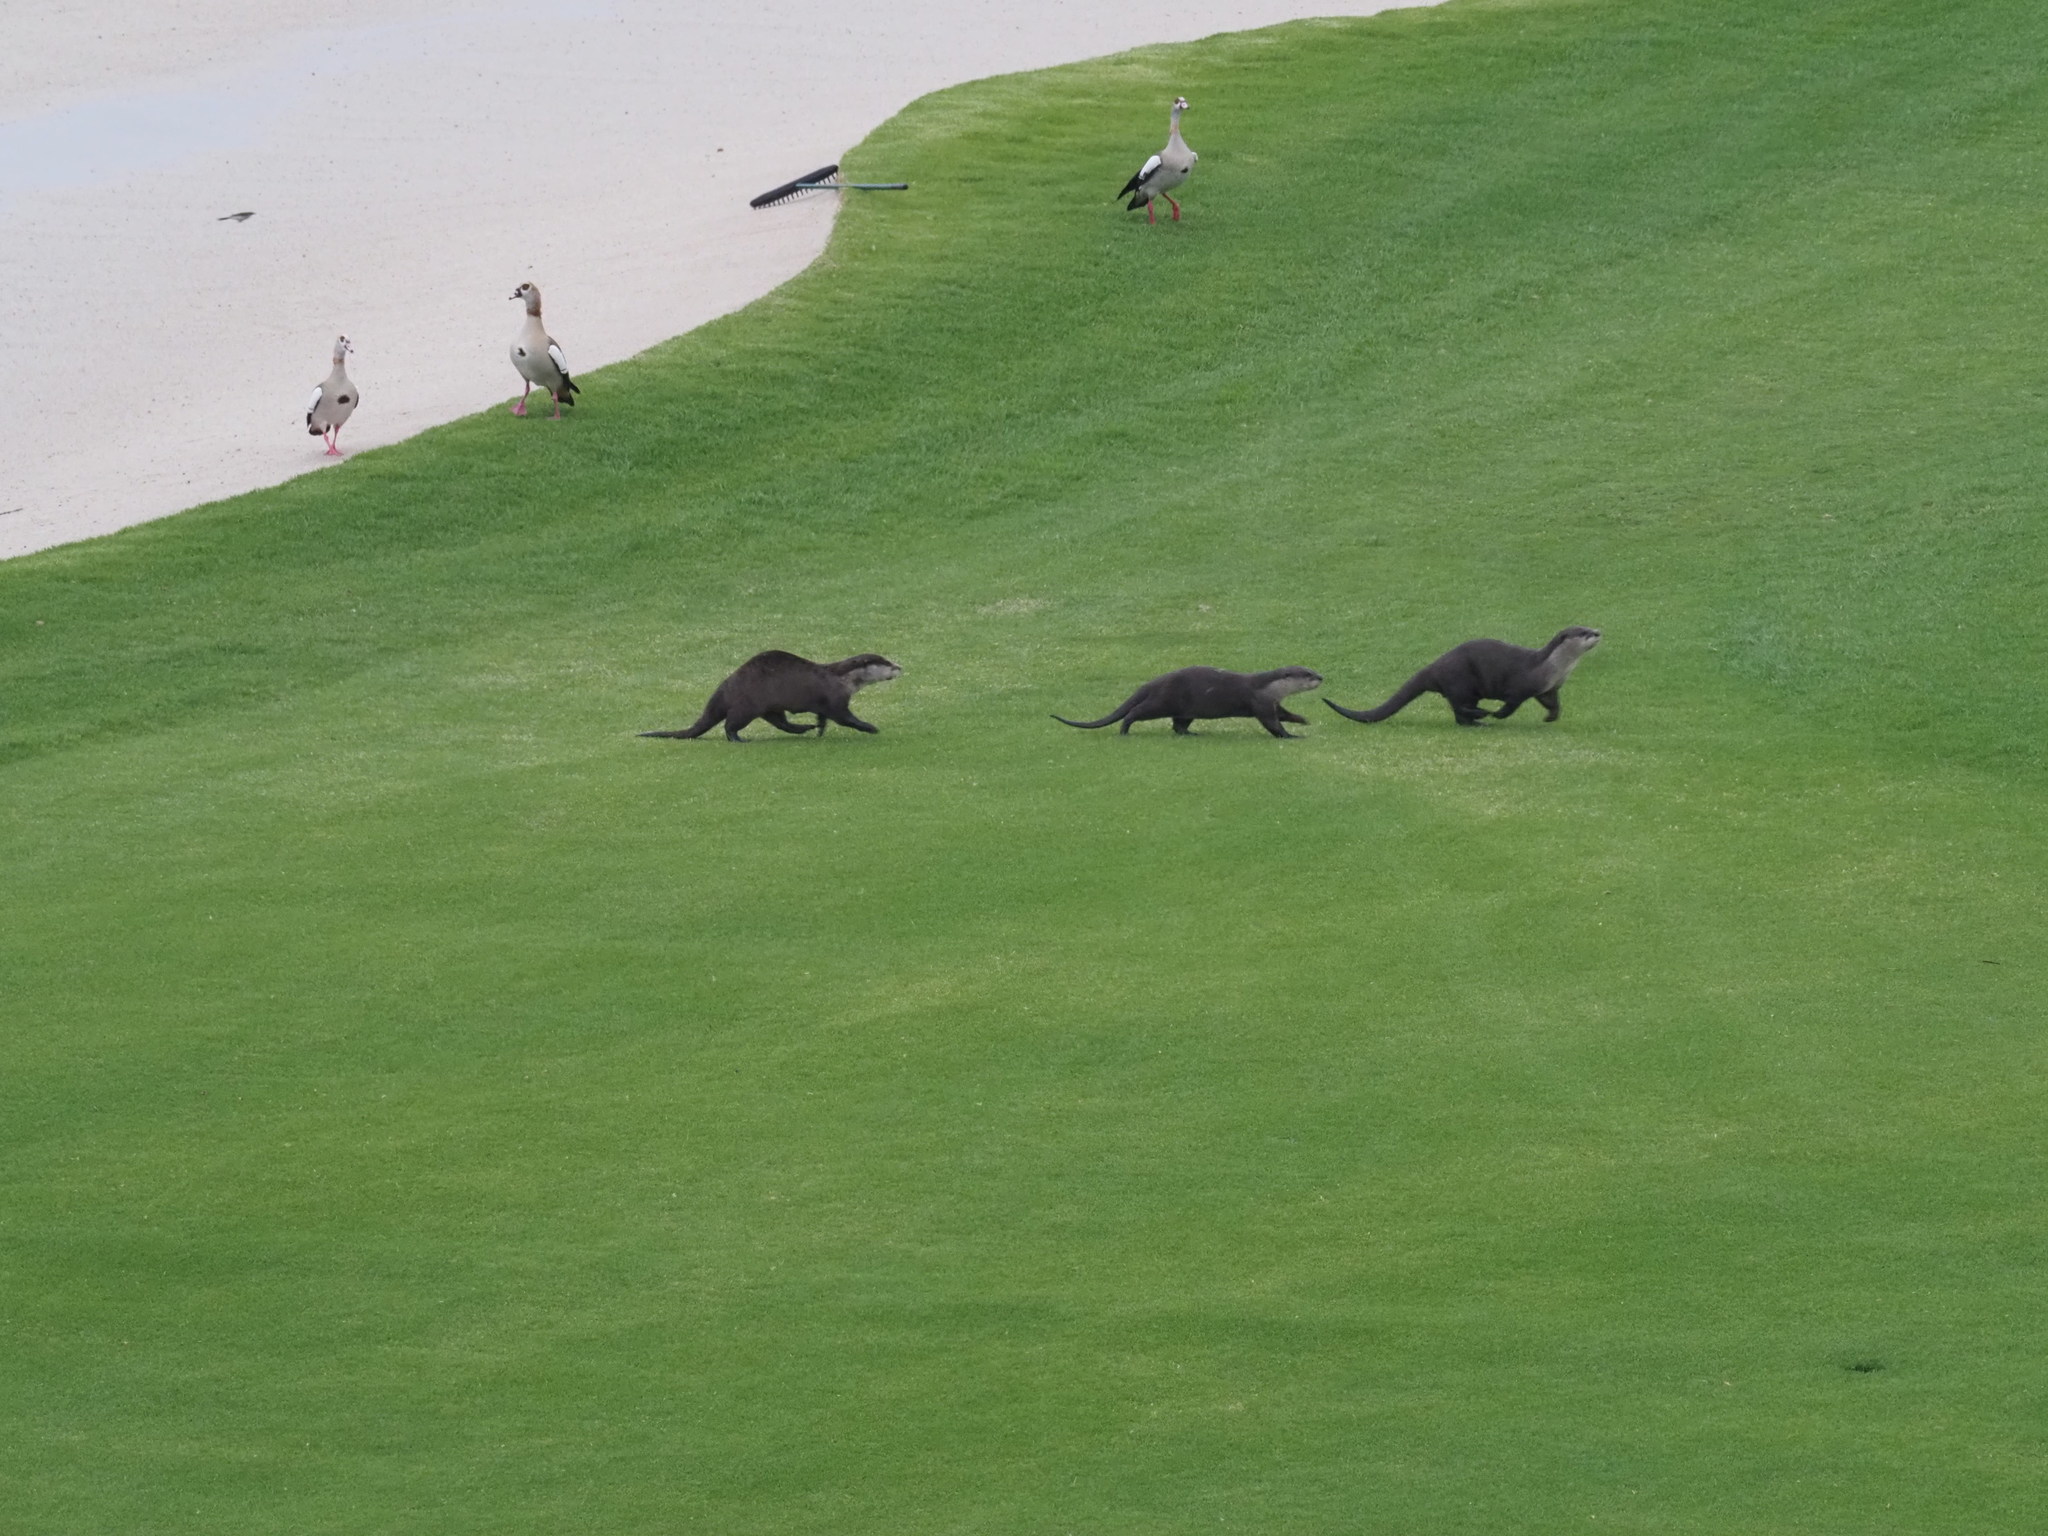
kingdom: Animalia
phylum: Chordata
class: Mammalia
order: Carnivora
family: Mustelidae
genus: Aonyx
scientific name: Aonyx capensis
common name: African clawless otter
